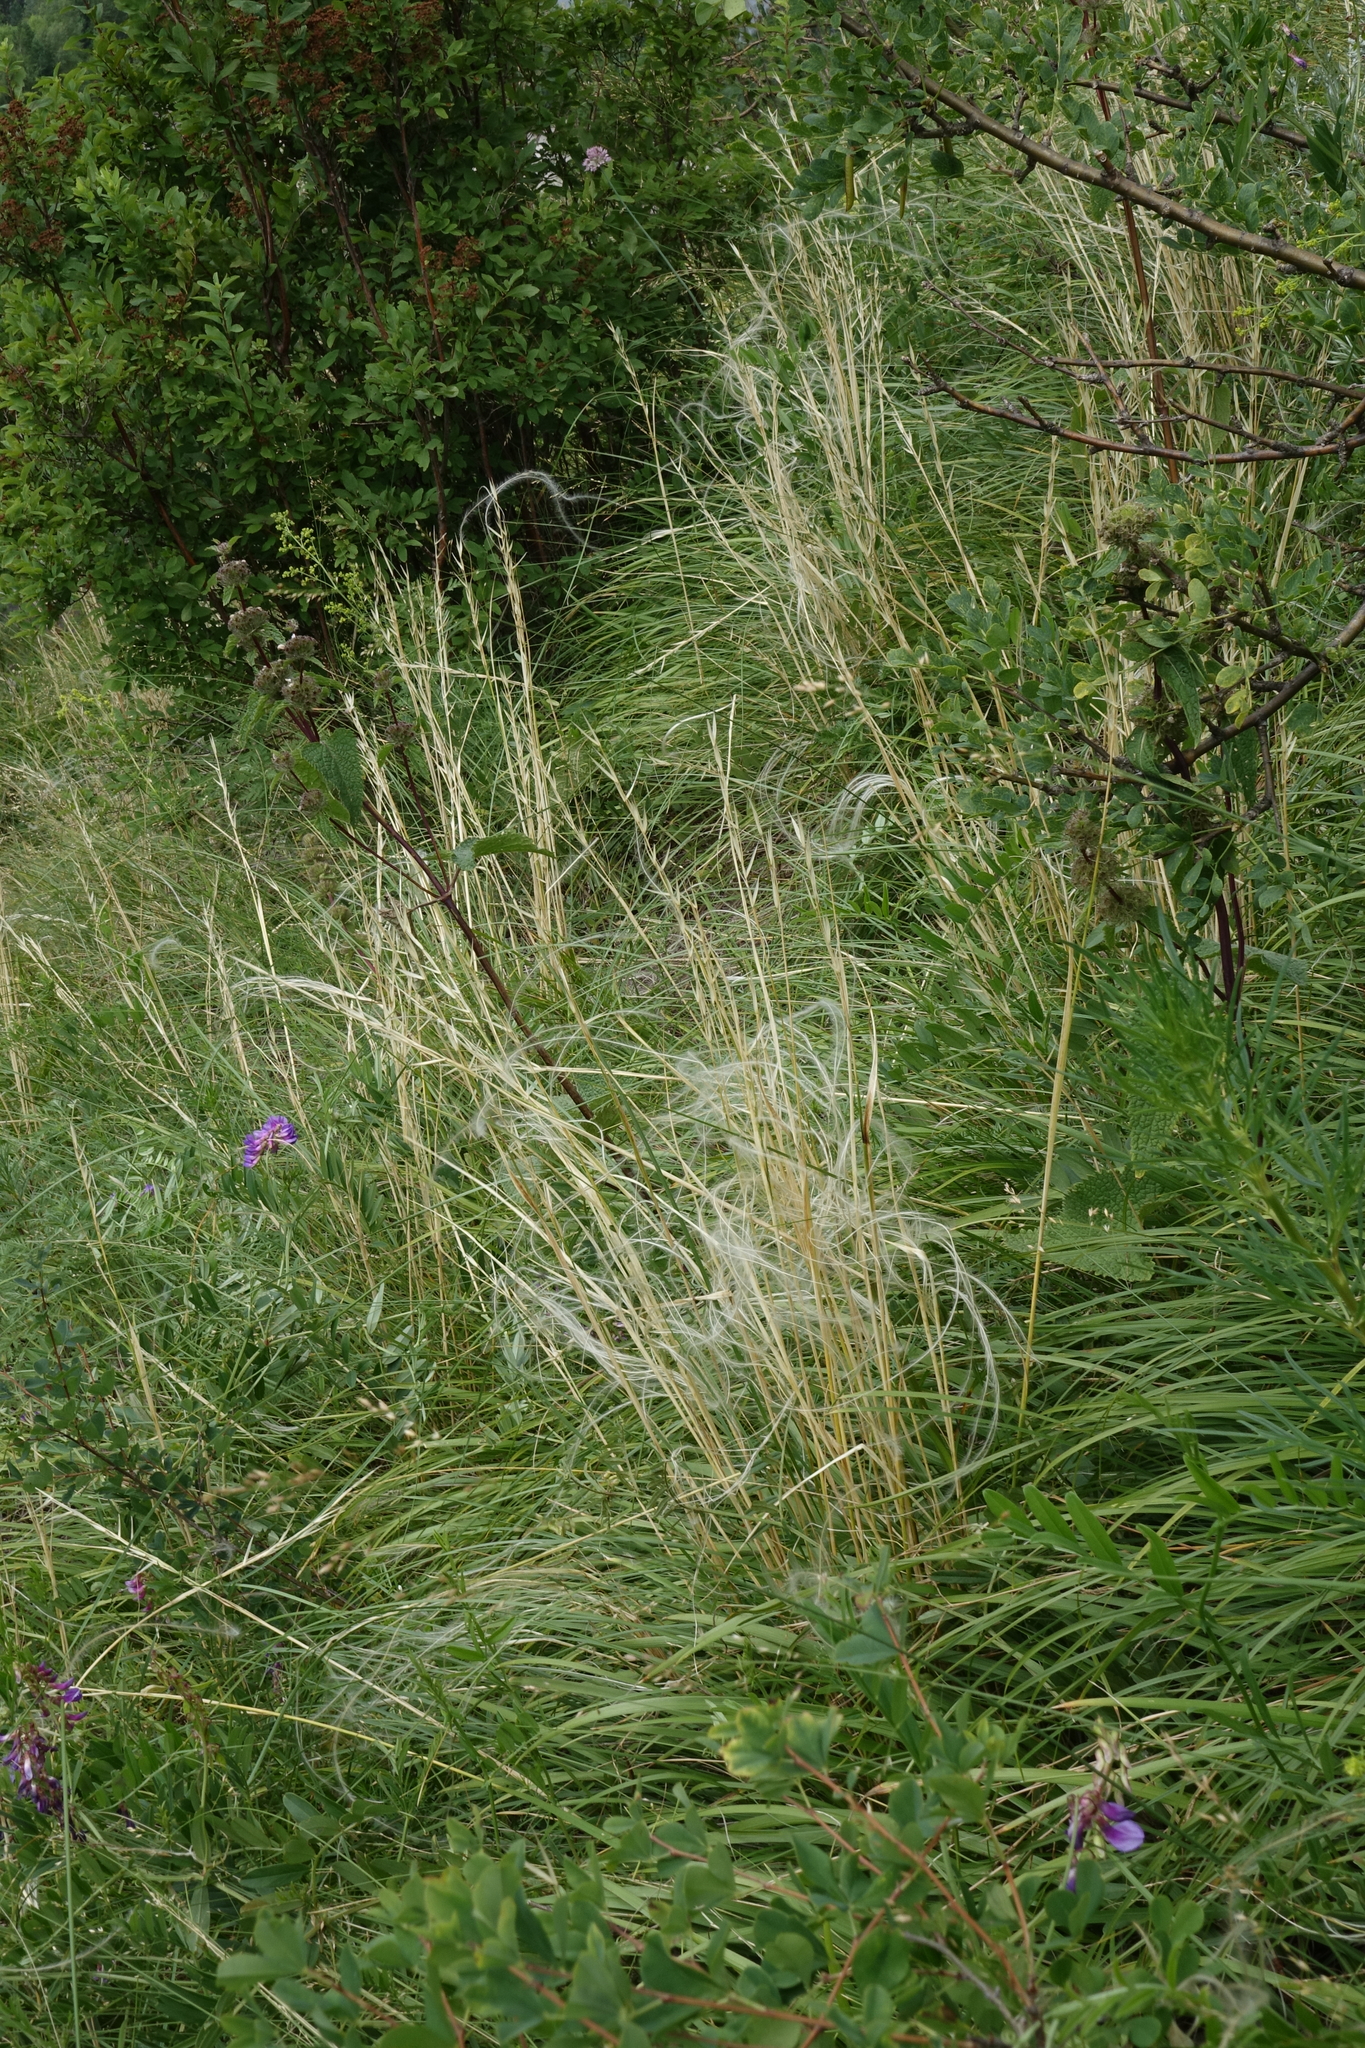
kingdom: Plantae
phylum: Tracheophyta
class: Liliopsida
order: Poales
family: Poaceae
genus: Stipa
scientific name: Stipa pennata
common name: European feather grass
